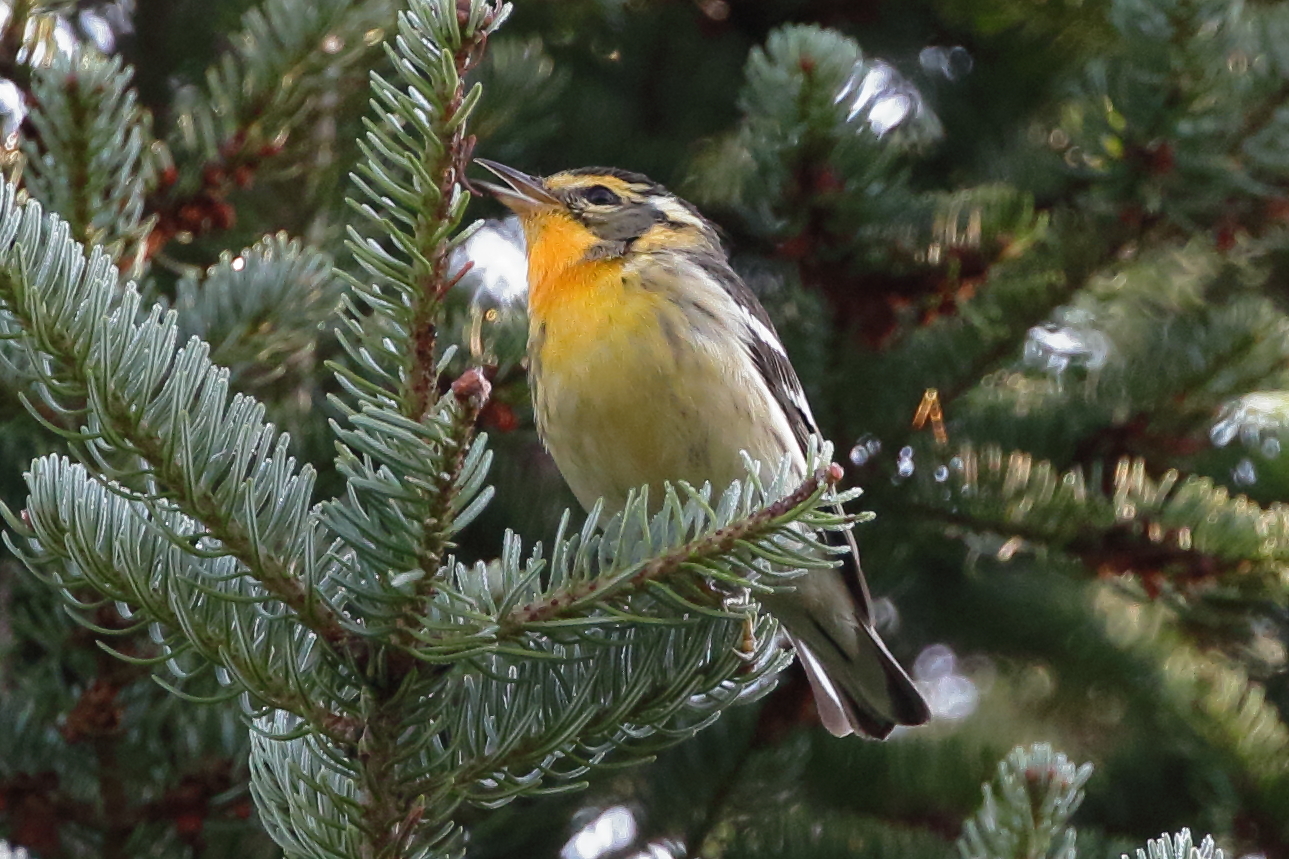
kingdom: Animalia
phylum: Chordata
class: Aves
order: Passeriformes
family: Parulidae
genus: Setophaga
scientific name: Setophaga fusca
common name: Blackburnian warbler
